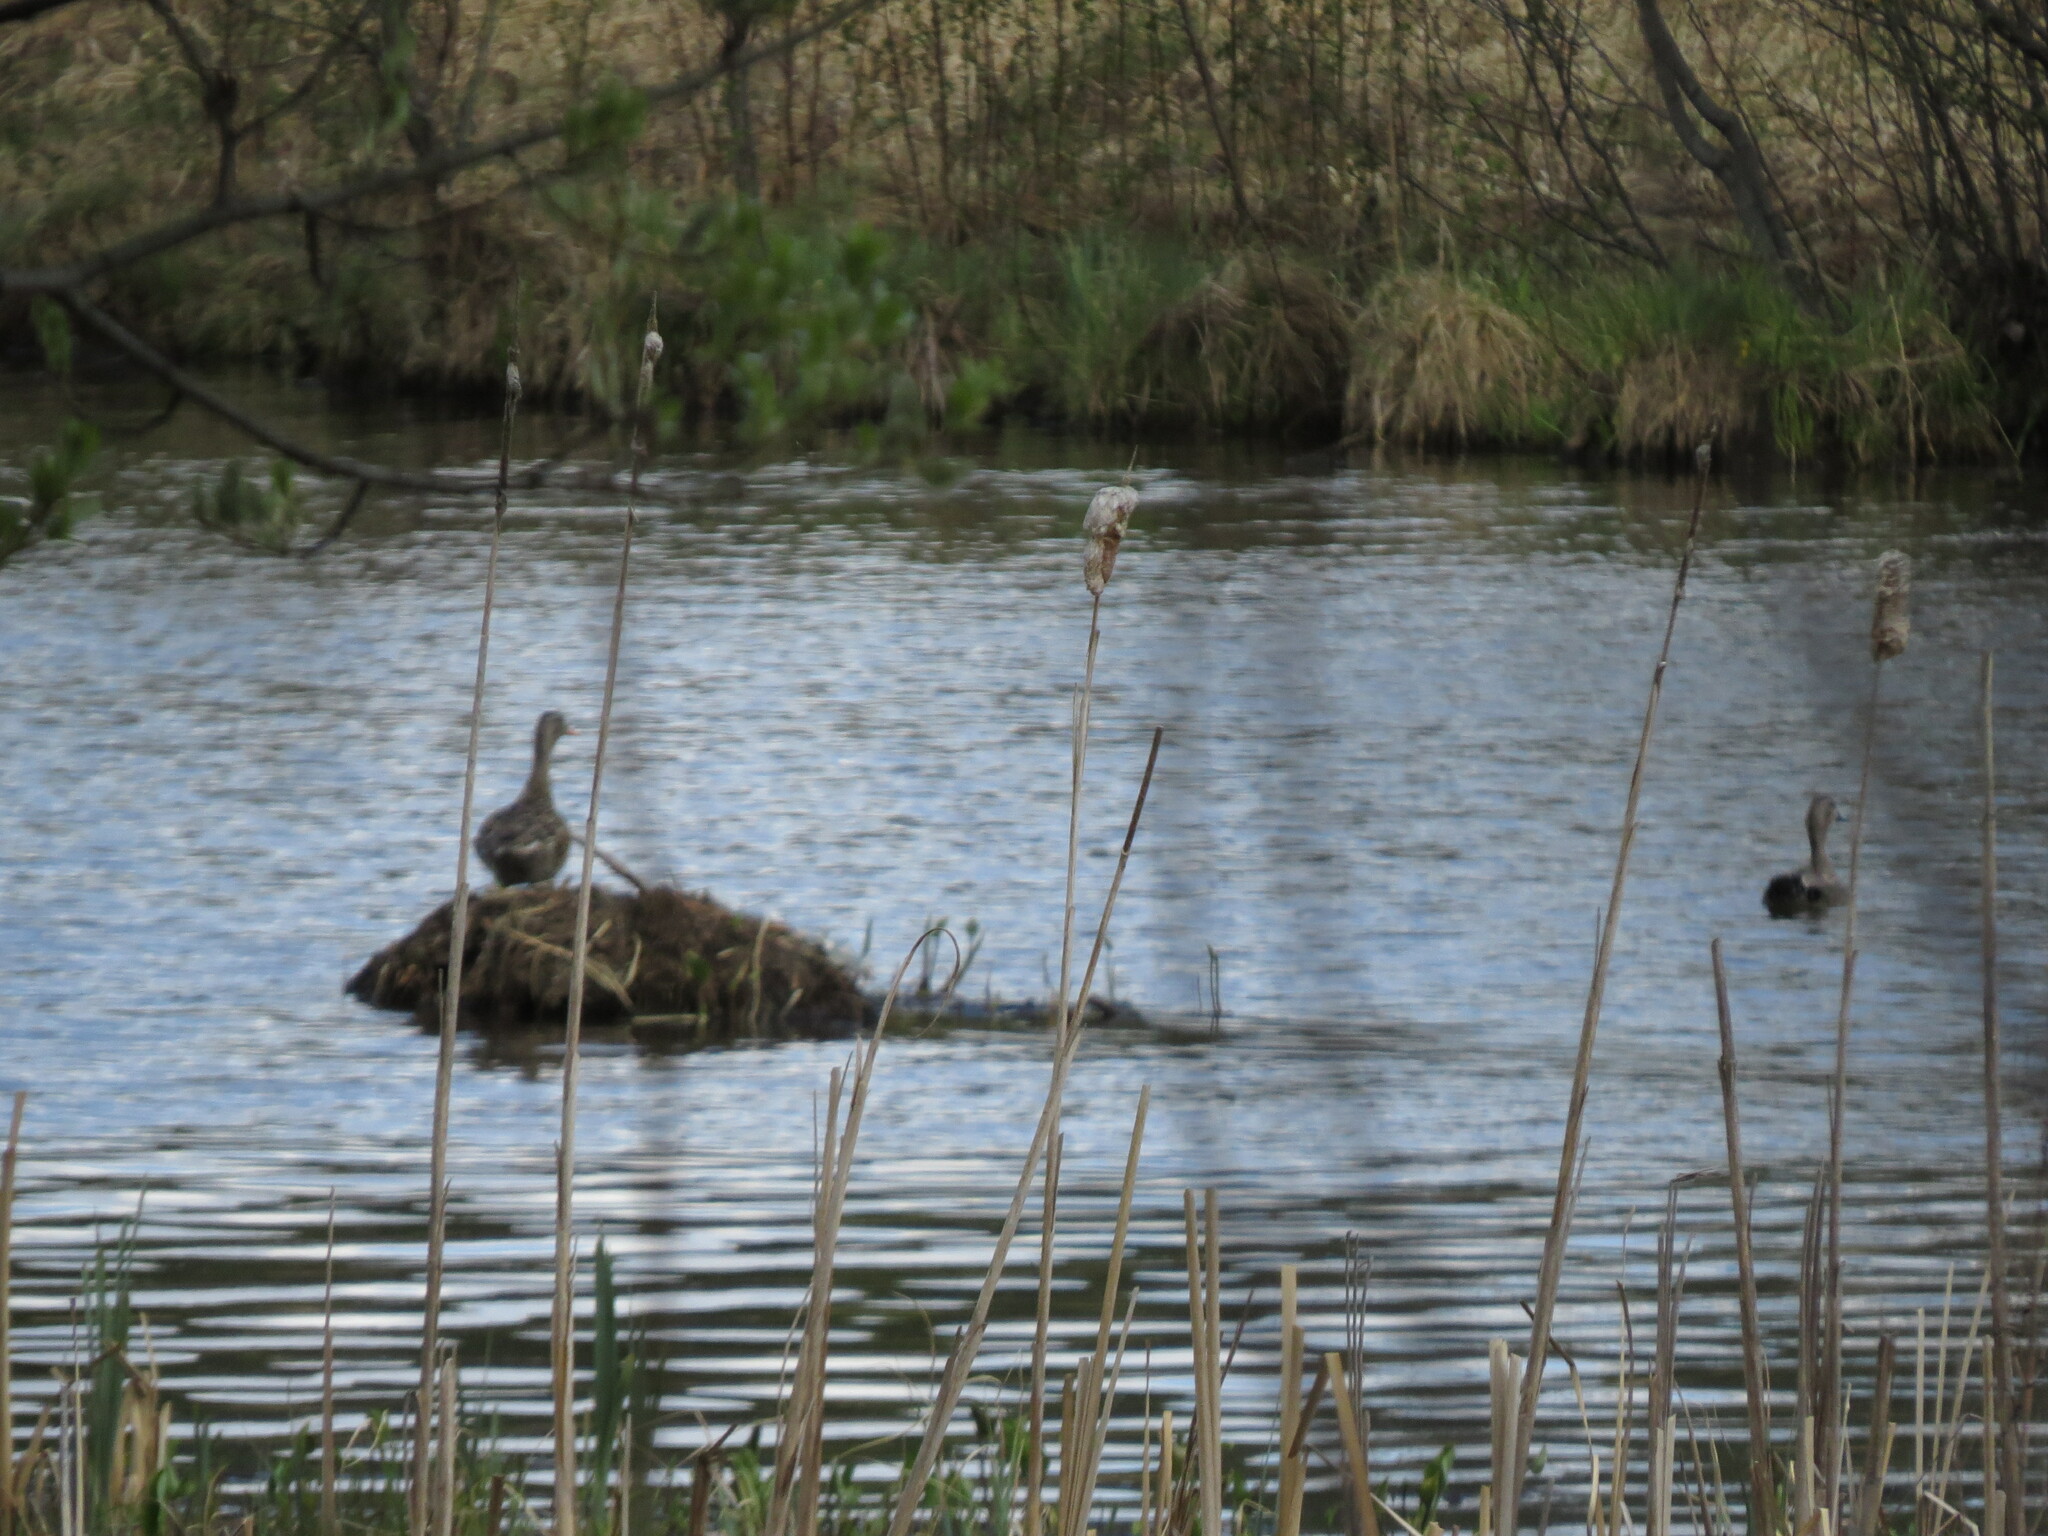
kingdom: Animalia
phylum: Chordata
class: Aves
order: Anseriformes
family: Anatidae
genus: Mareca
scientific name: Mareca strepera
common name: Gadwall
